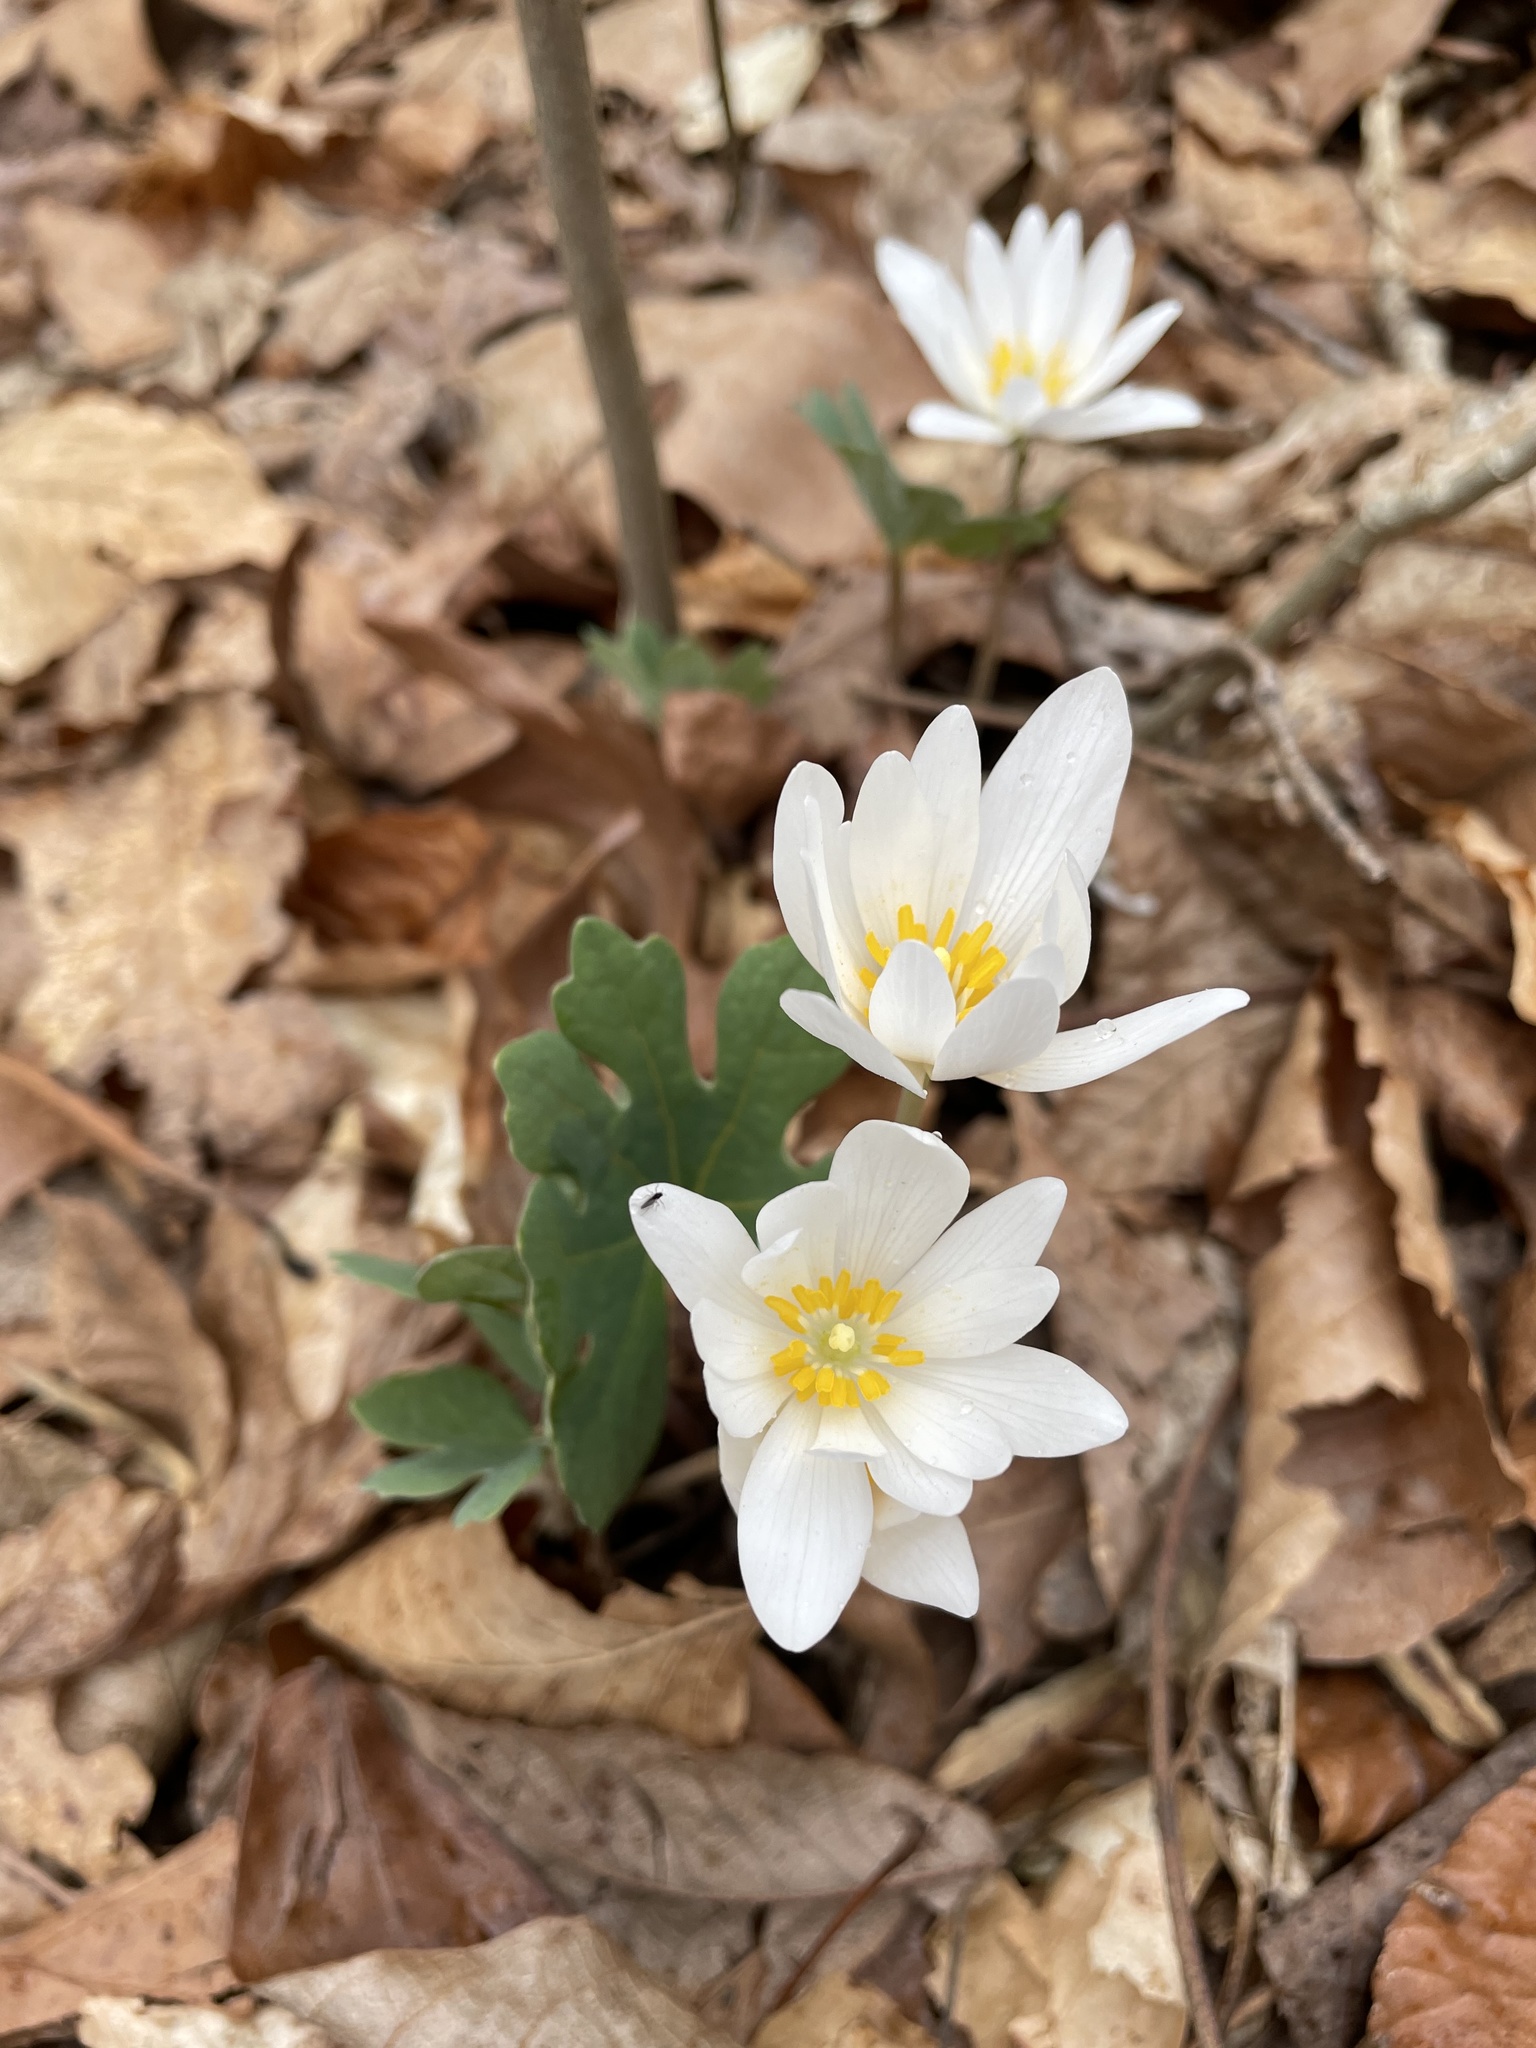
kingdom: Plantae
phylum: Tracheophyta
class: Magnoliopsida
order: Ranunculales
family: Papaveraceae
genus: Sanguinaria
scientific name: Sanguinaria canadensis
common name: Bloodroot
